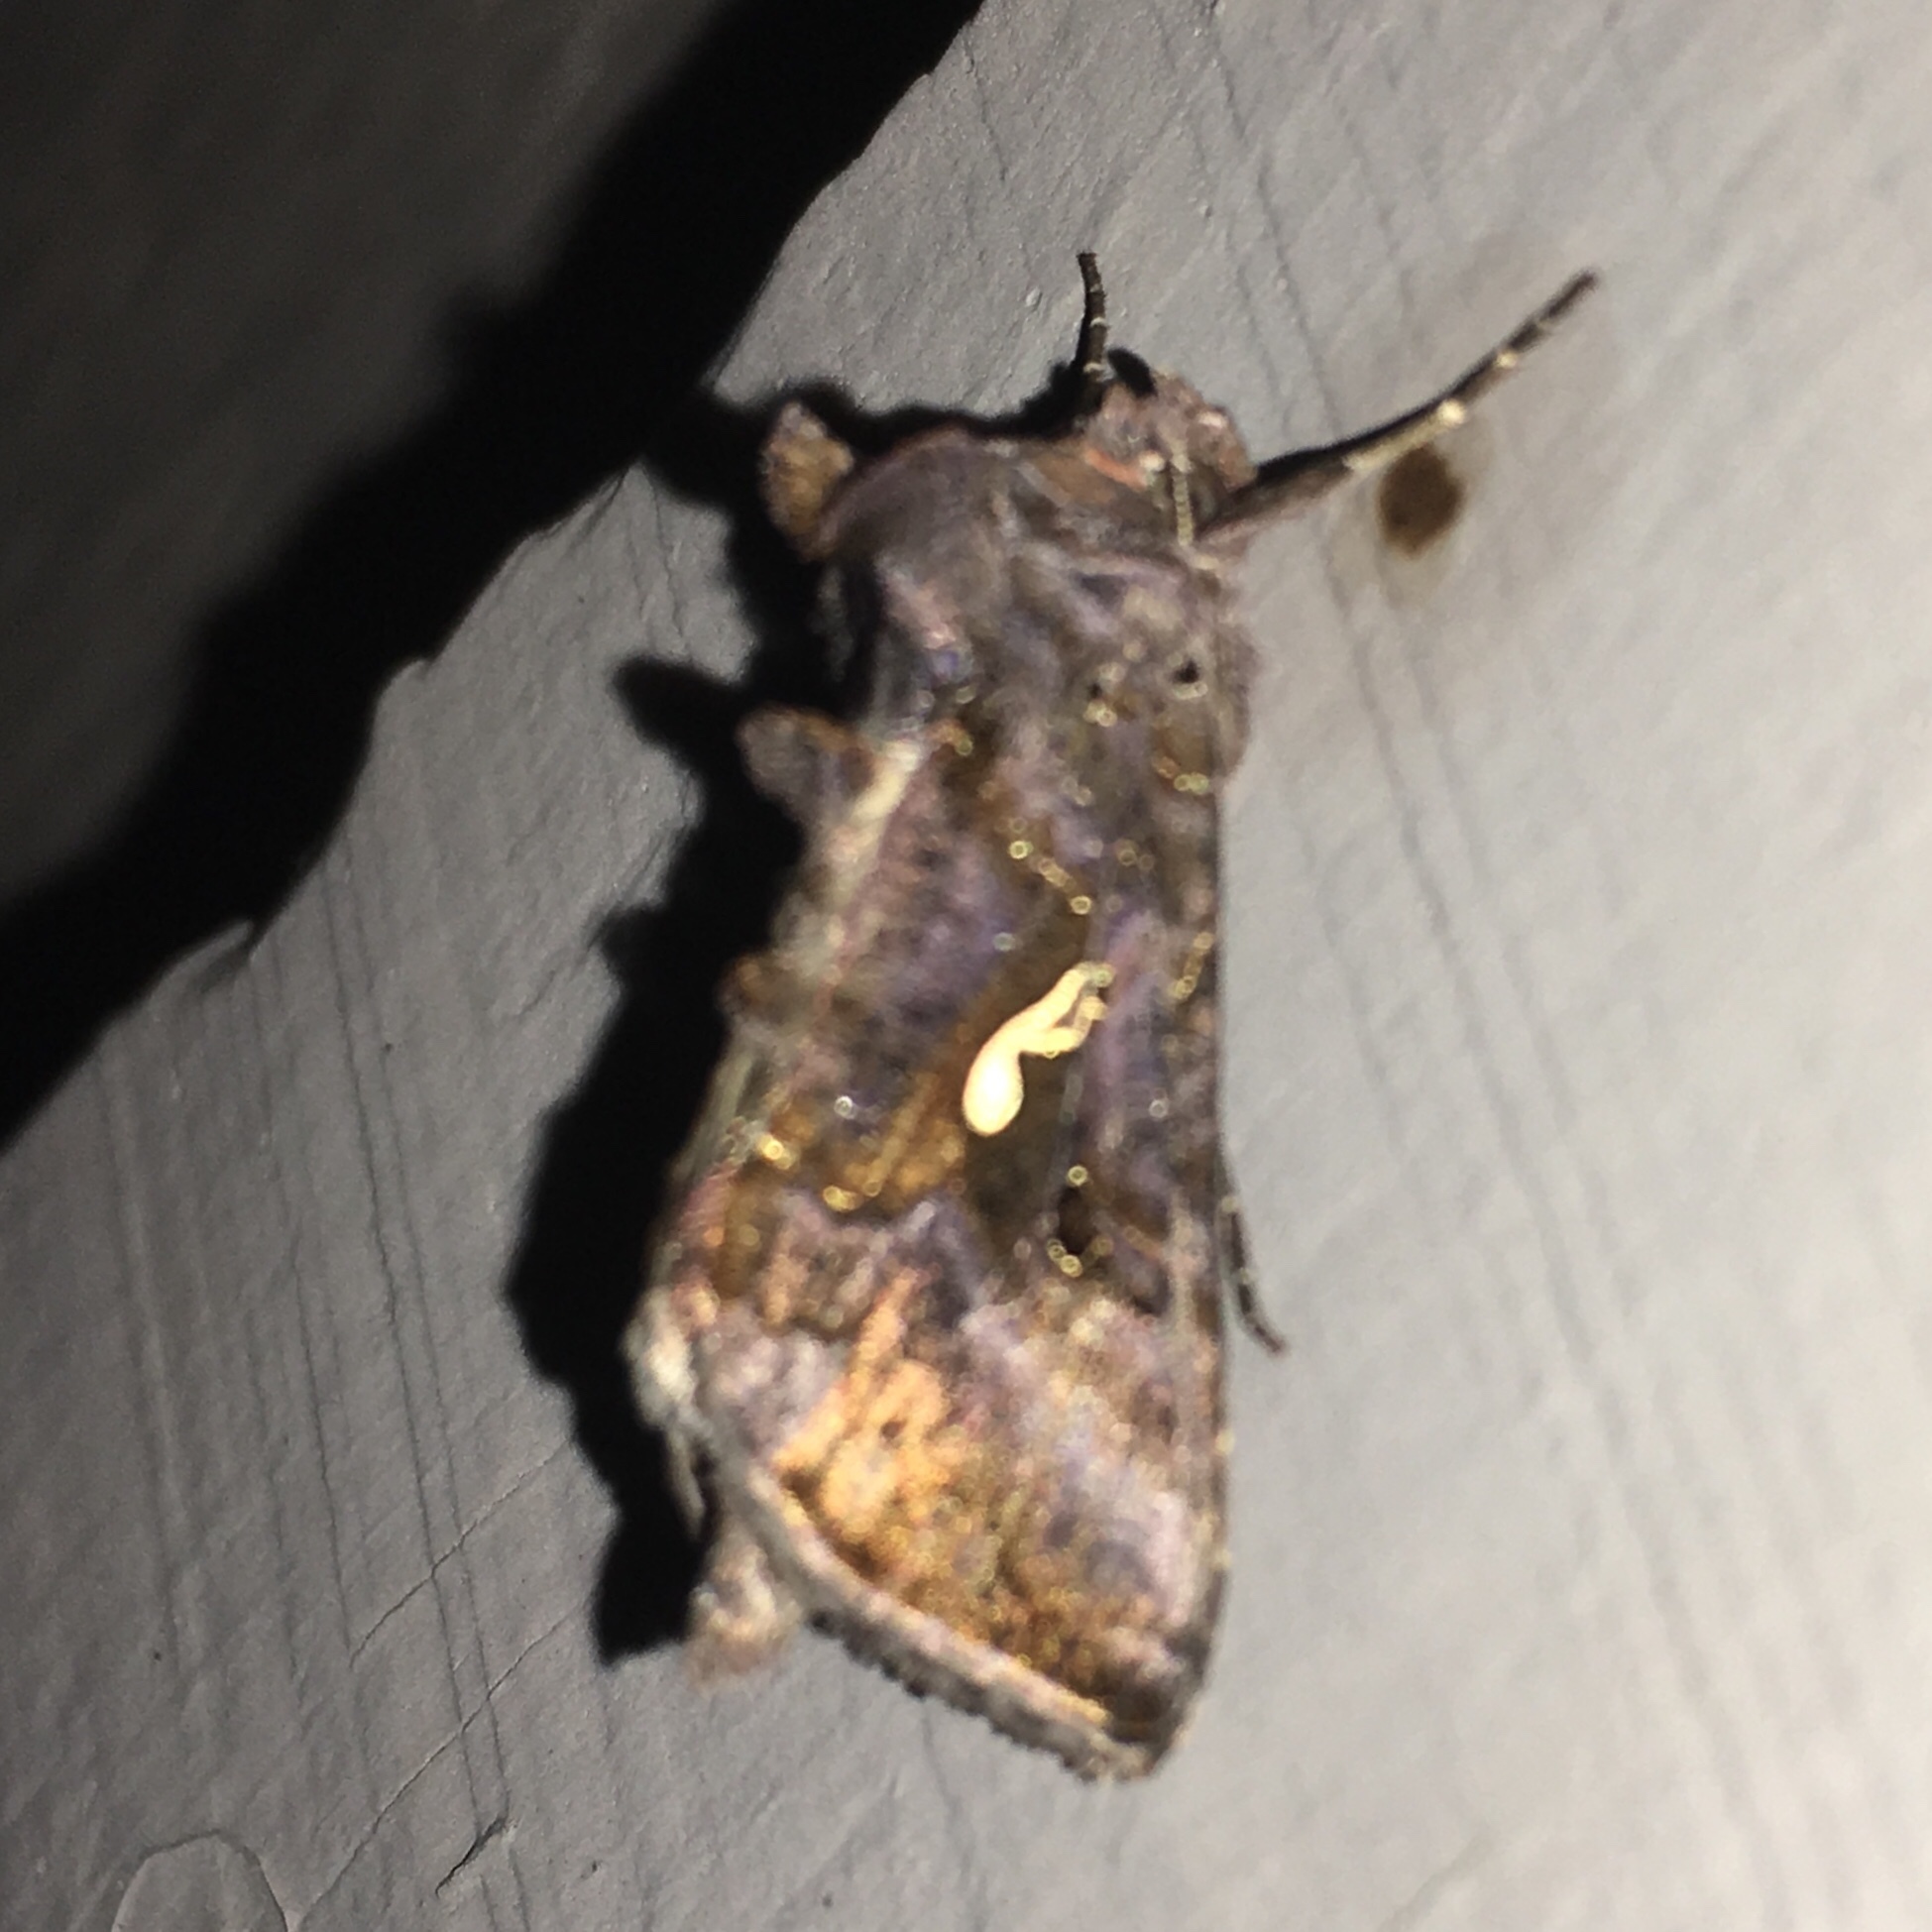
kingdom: Animalia
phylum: Arthropoda
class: Insecta
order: Lepidoptera
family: Noctuidae
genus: Autographa
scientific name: Autographa precationis
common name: Common looper moth
